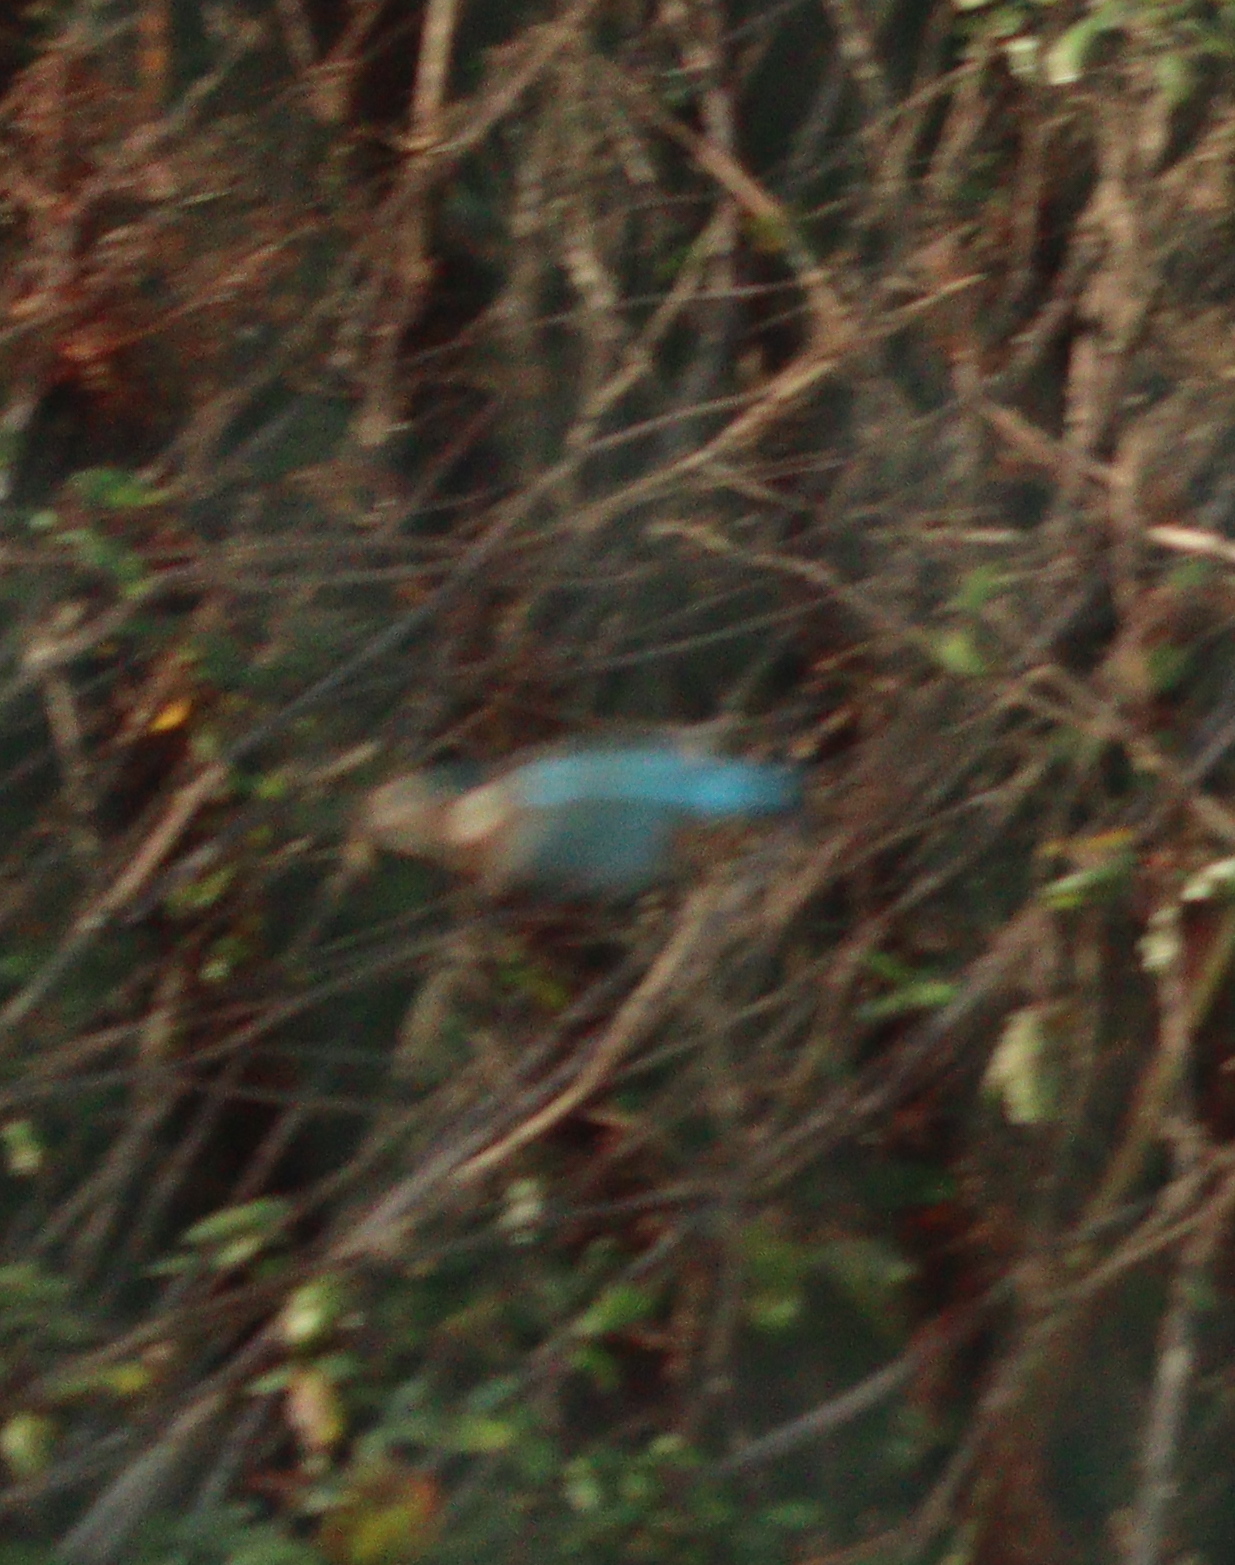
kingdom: Animalia
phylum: Chordata
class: Aves
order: Coraciiformes
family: Alcedinidae
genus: Alcedo
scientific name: Alcedo atthis
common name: Common kingfisher
